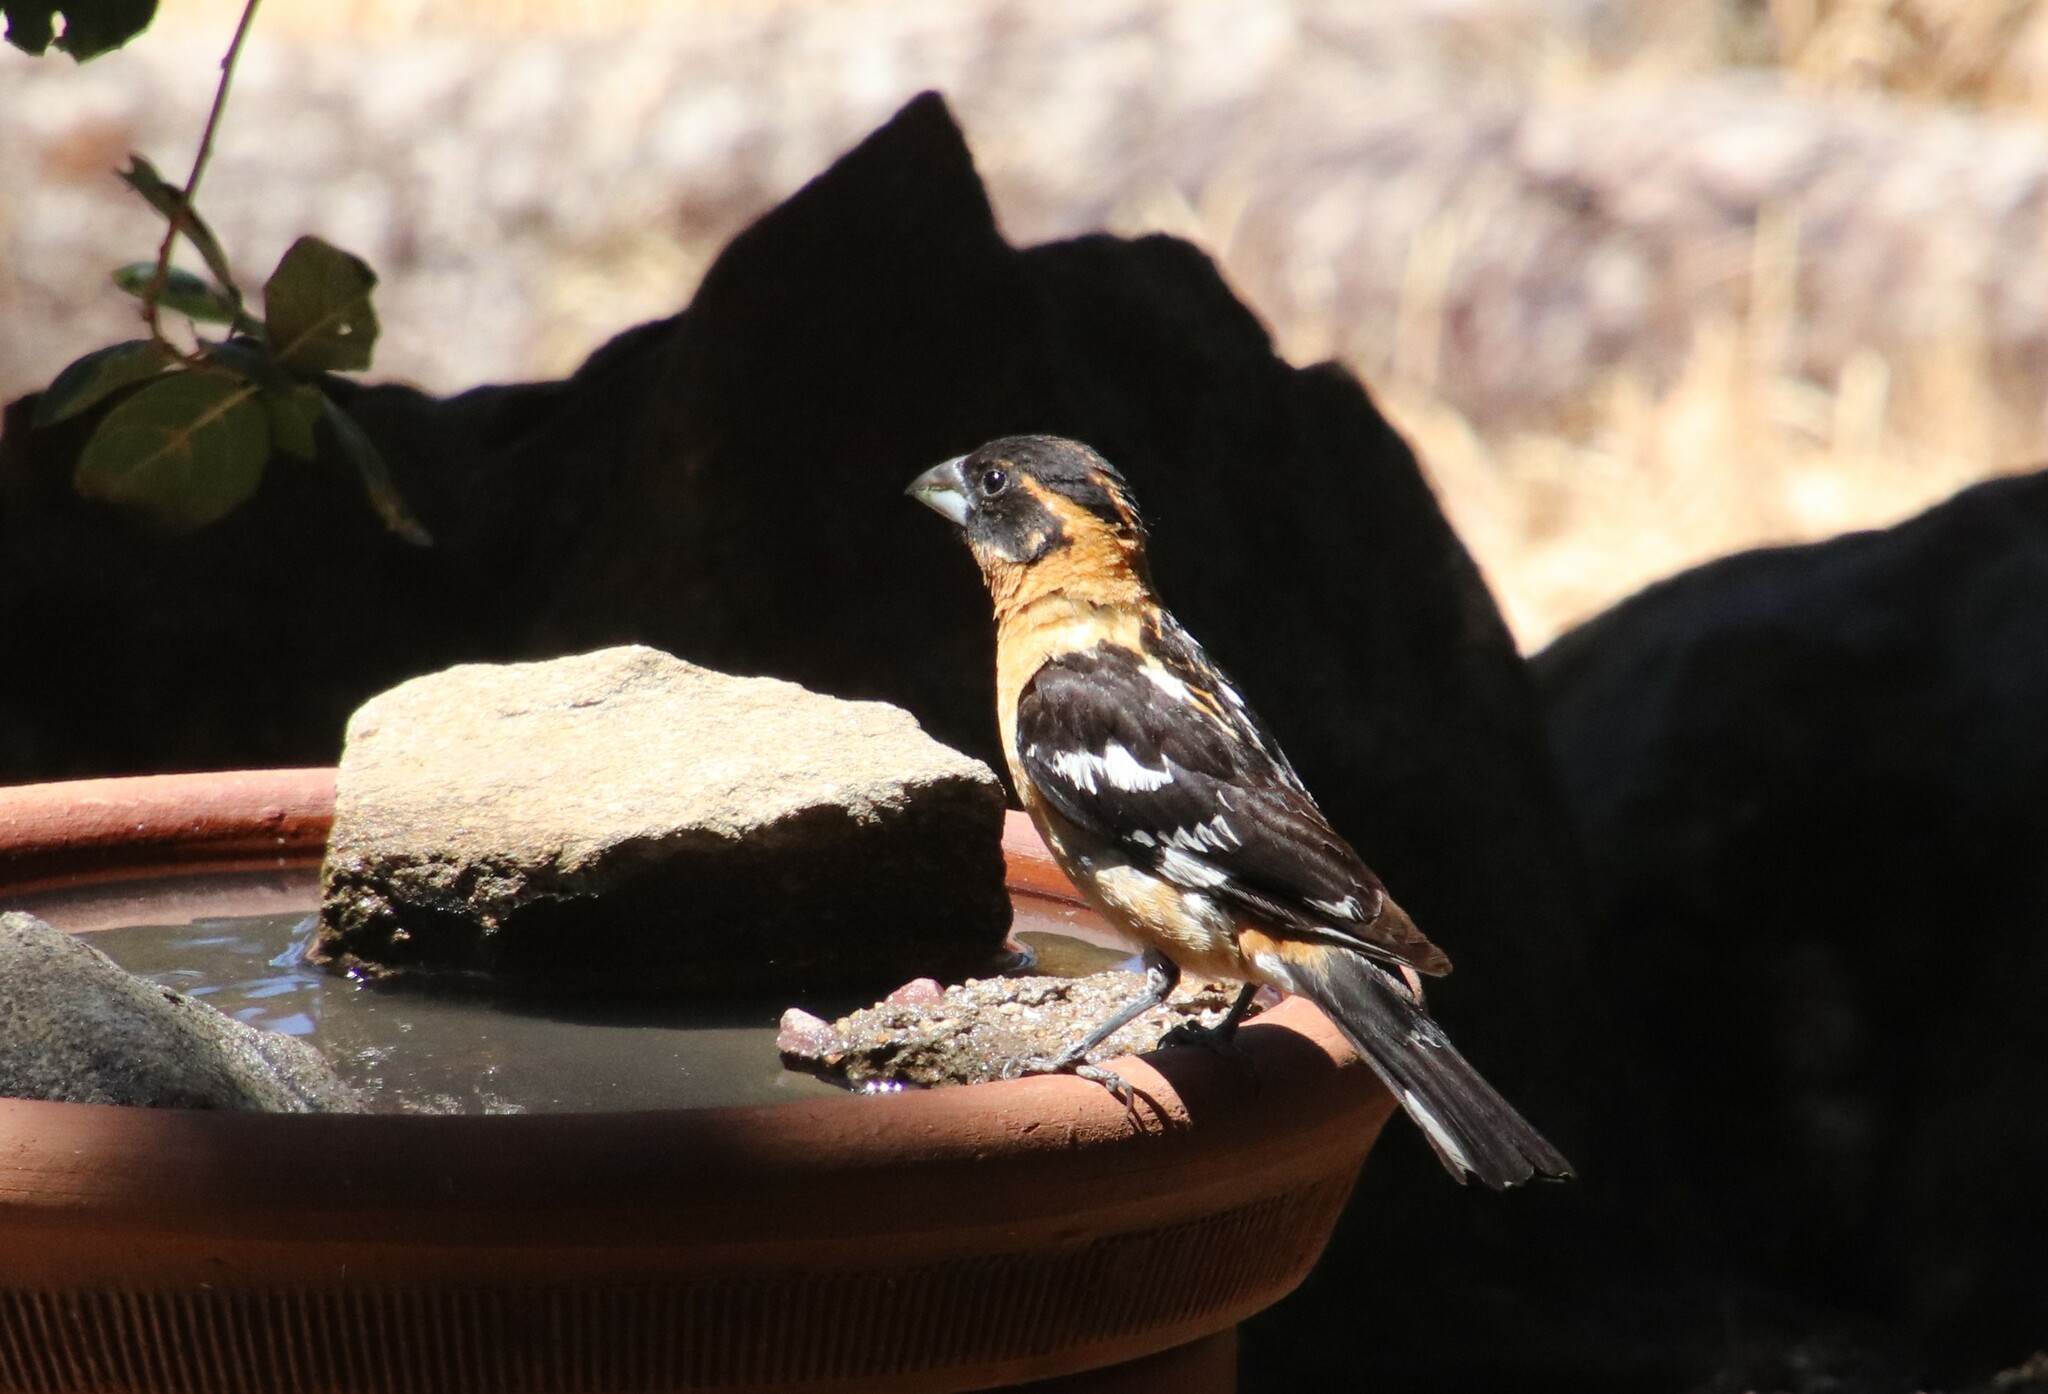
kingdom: Animalia
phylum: Chordata
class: Aves
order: Passeriformes
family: Cardinalidae
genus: Pheucticus
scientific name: Pheucticus melanocephalus
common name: Black-headed grosbeak
